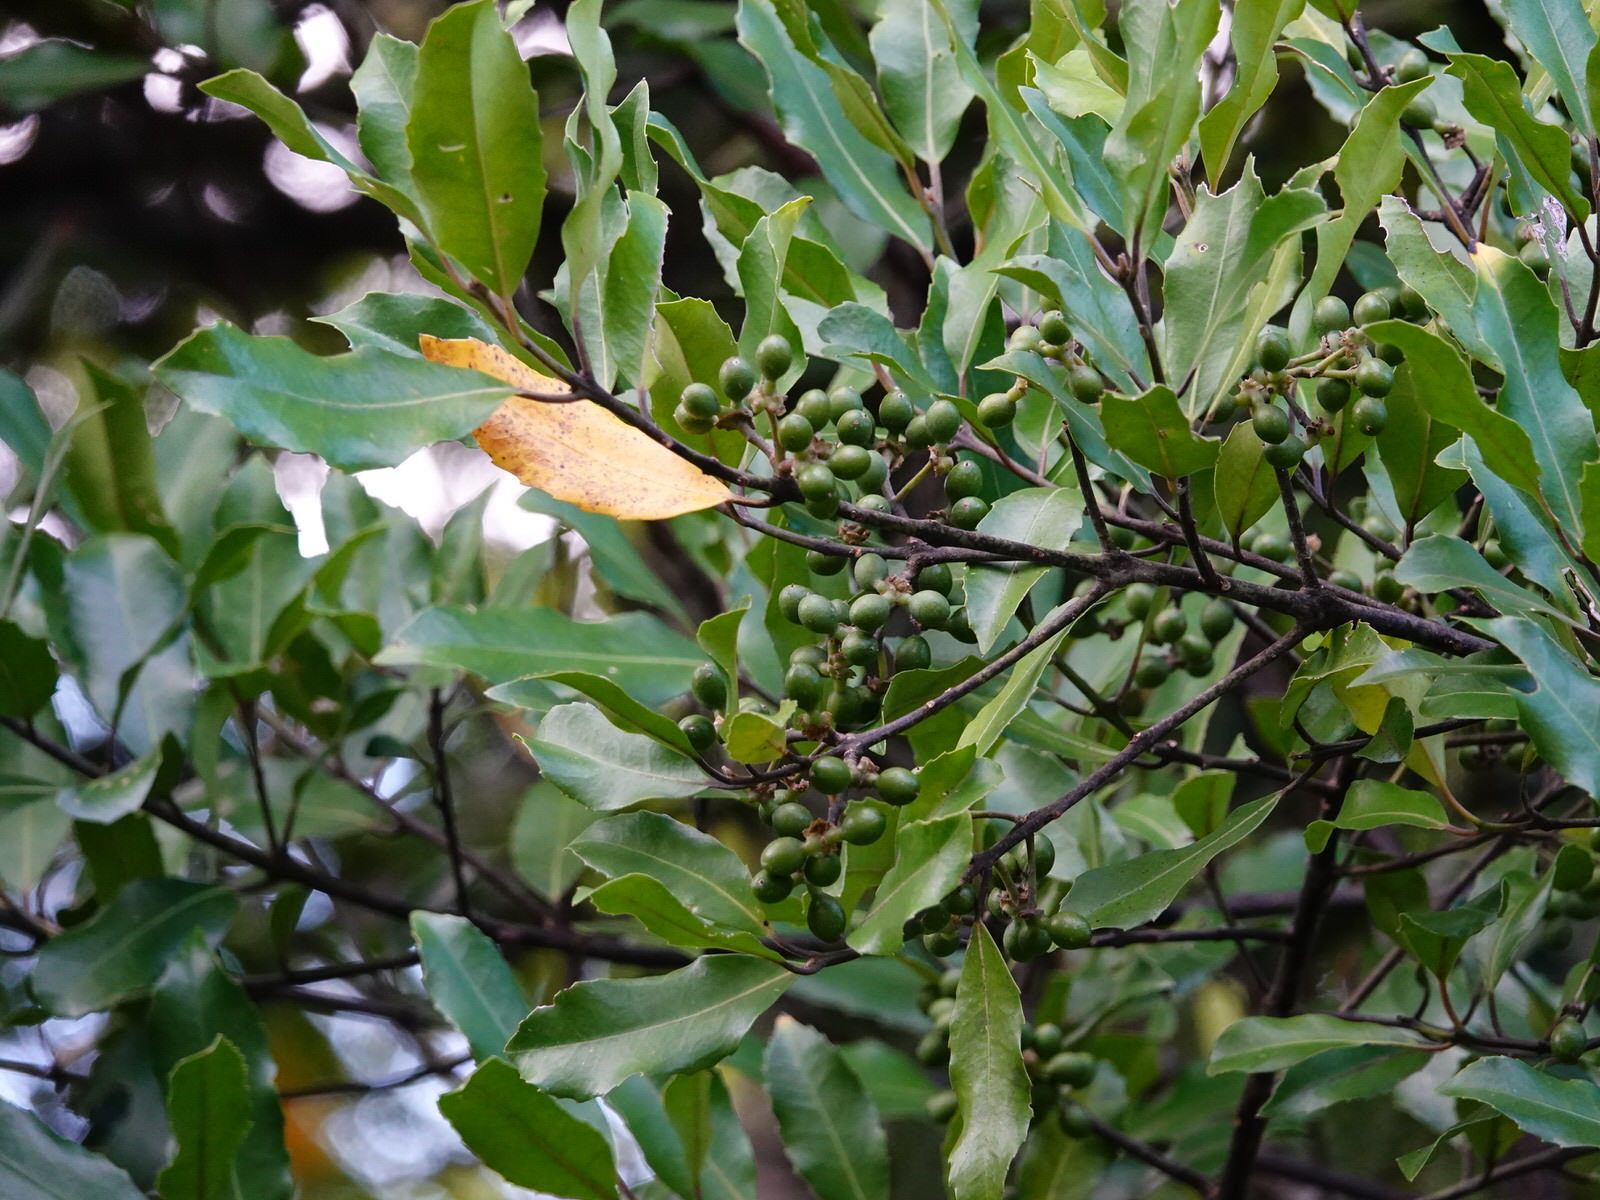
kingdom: Plantae
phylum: Tracheophyta
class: Magnoliopsida
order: Laurales
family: Monimiaceae
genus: Hedycarya
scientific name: Hedycarya arborea
